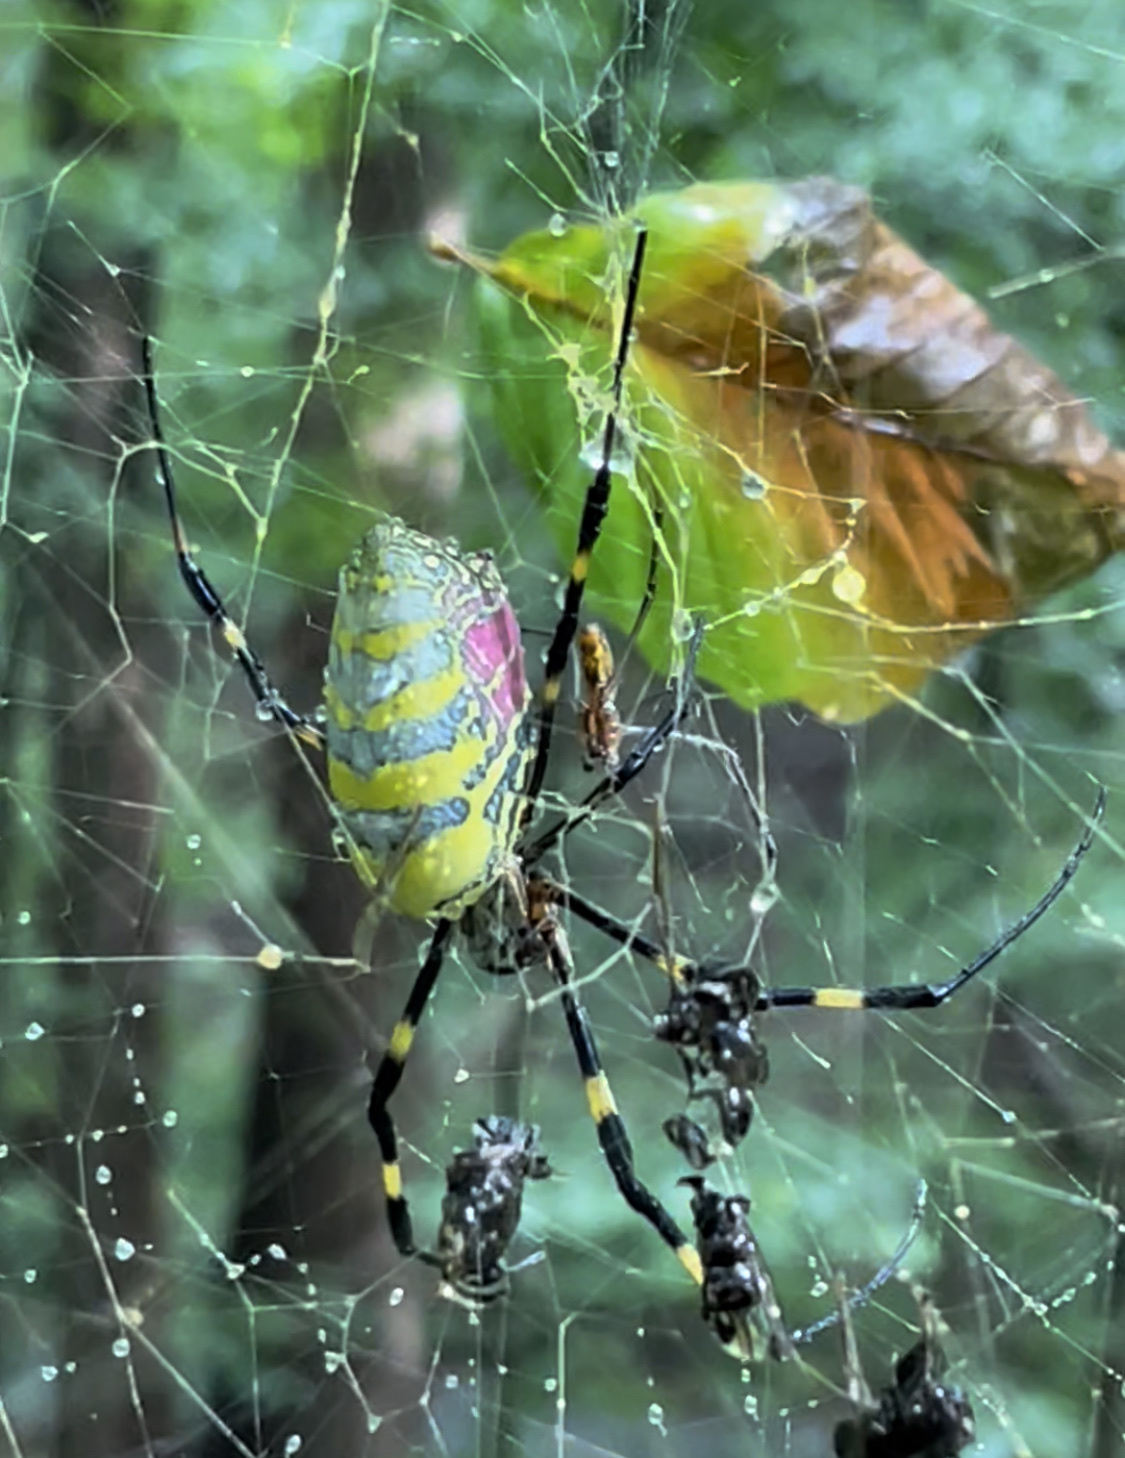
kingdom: Animalia
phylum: Arthropoda
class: Arachnida
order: Araneae
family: Araneidae
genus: Trichonephila
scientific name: Trichonephila clavata
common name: Jorō spider
